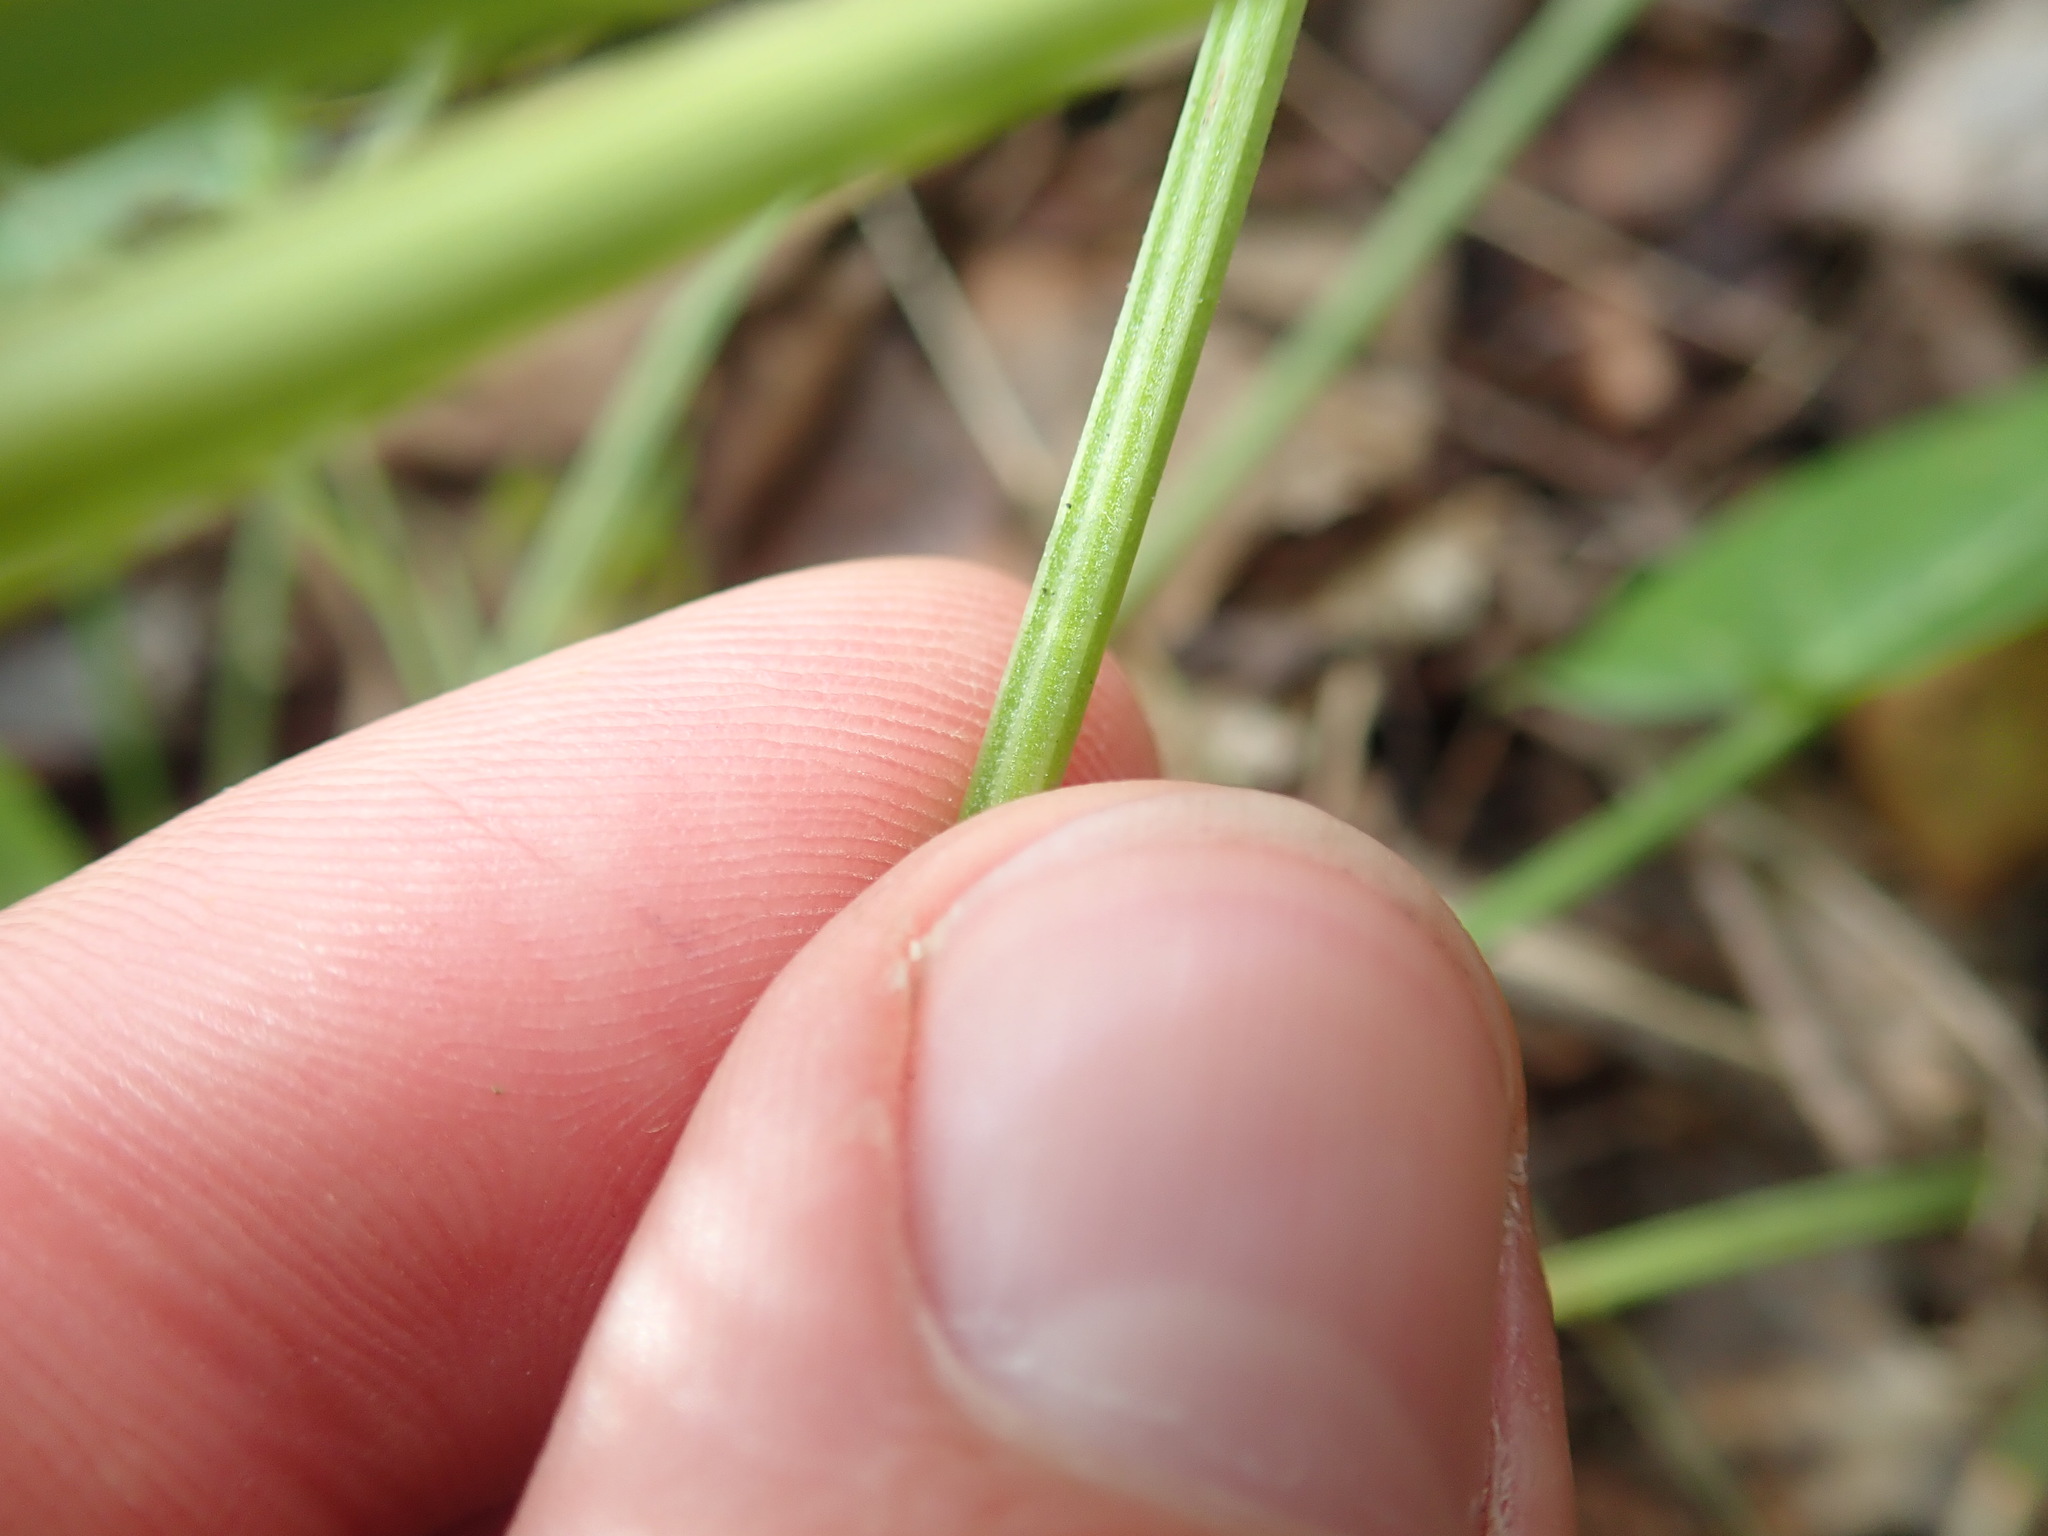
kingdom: Plantae
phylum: Tracheophyta
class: Magnoliopsida
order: Caryophyllales
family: Polygonaceae
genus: Rumex
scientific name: Rumex acetosa
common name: Garden sorrel
